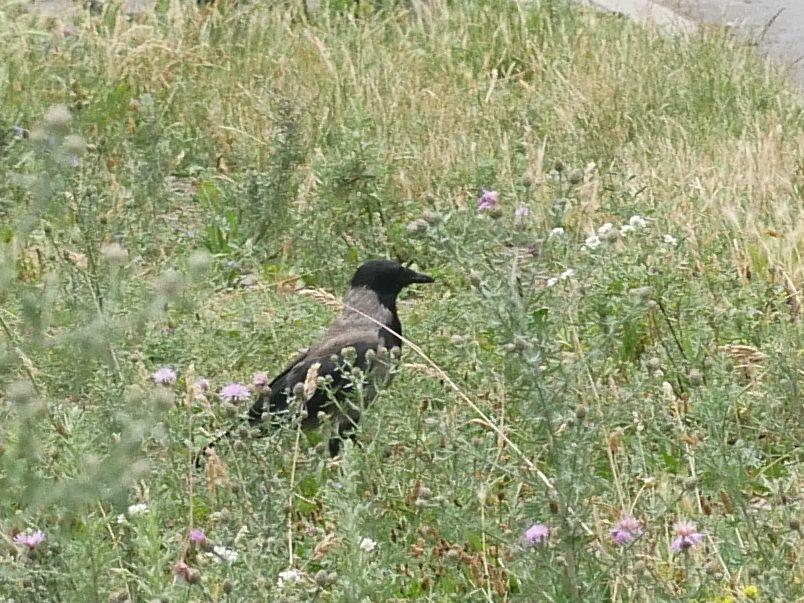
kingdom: Animalia
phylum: Chordata
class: Aves
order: Passeriformes
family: Corvidae
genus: Corvus
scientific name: Corvus cornix
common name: Hooded crow
